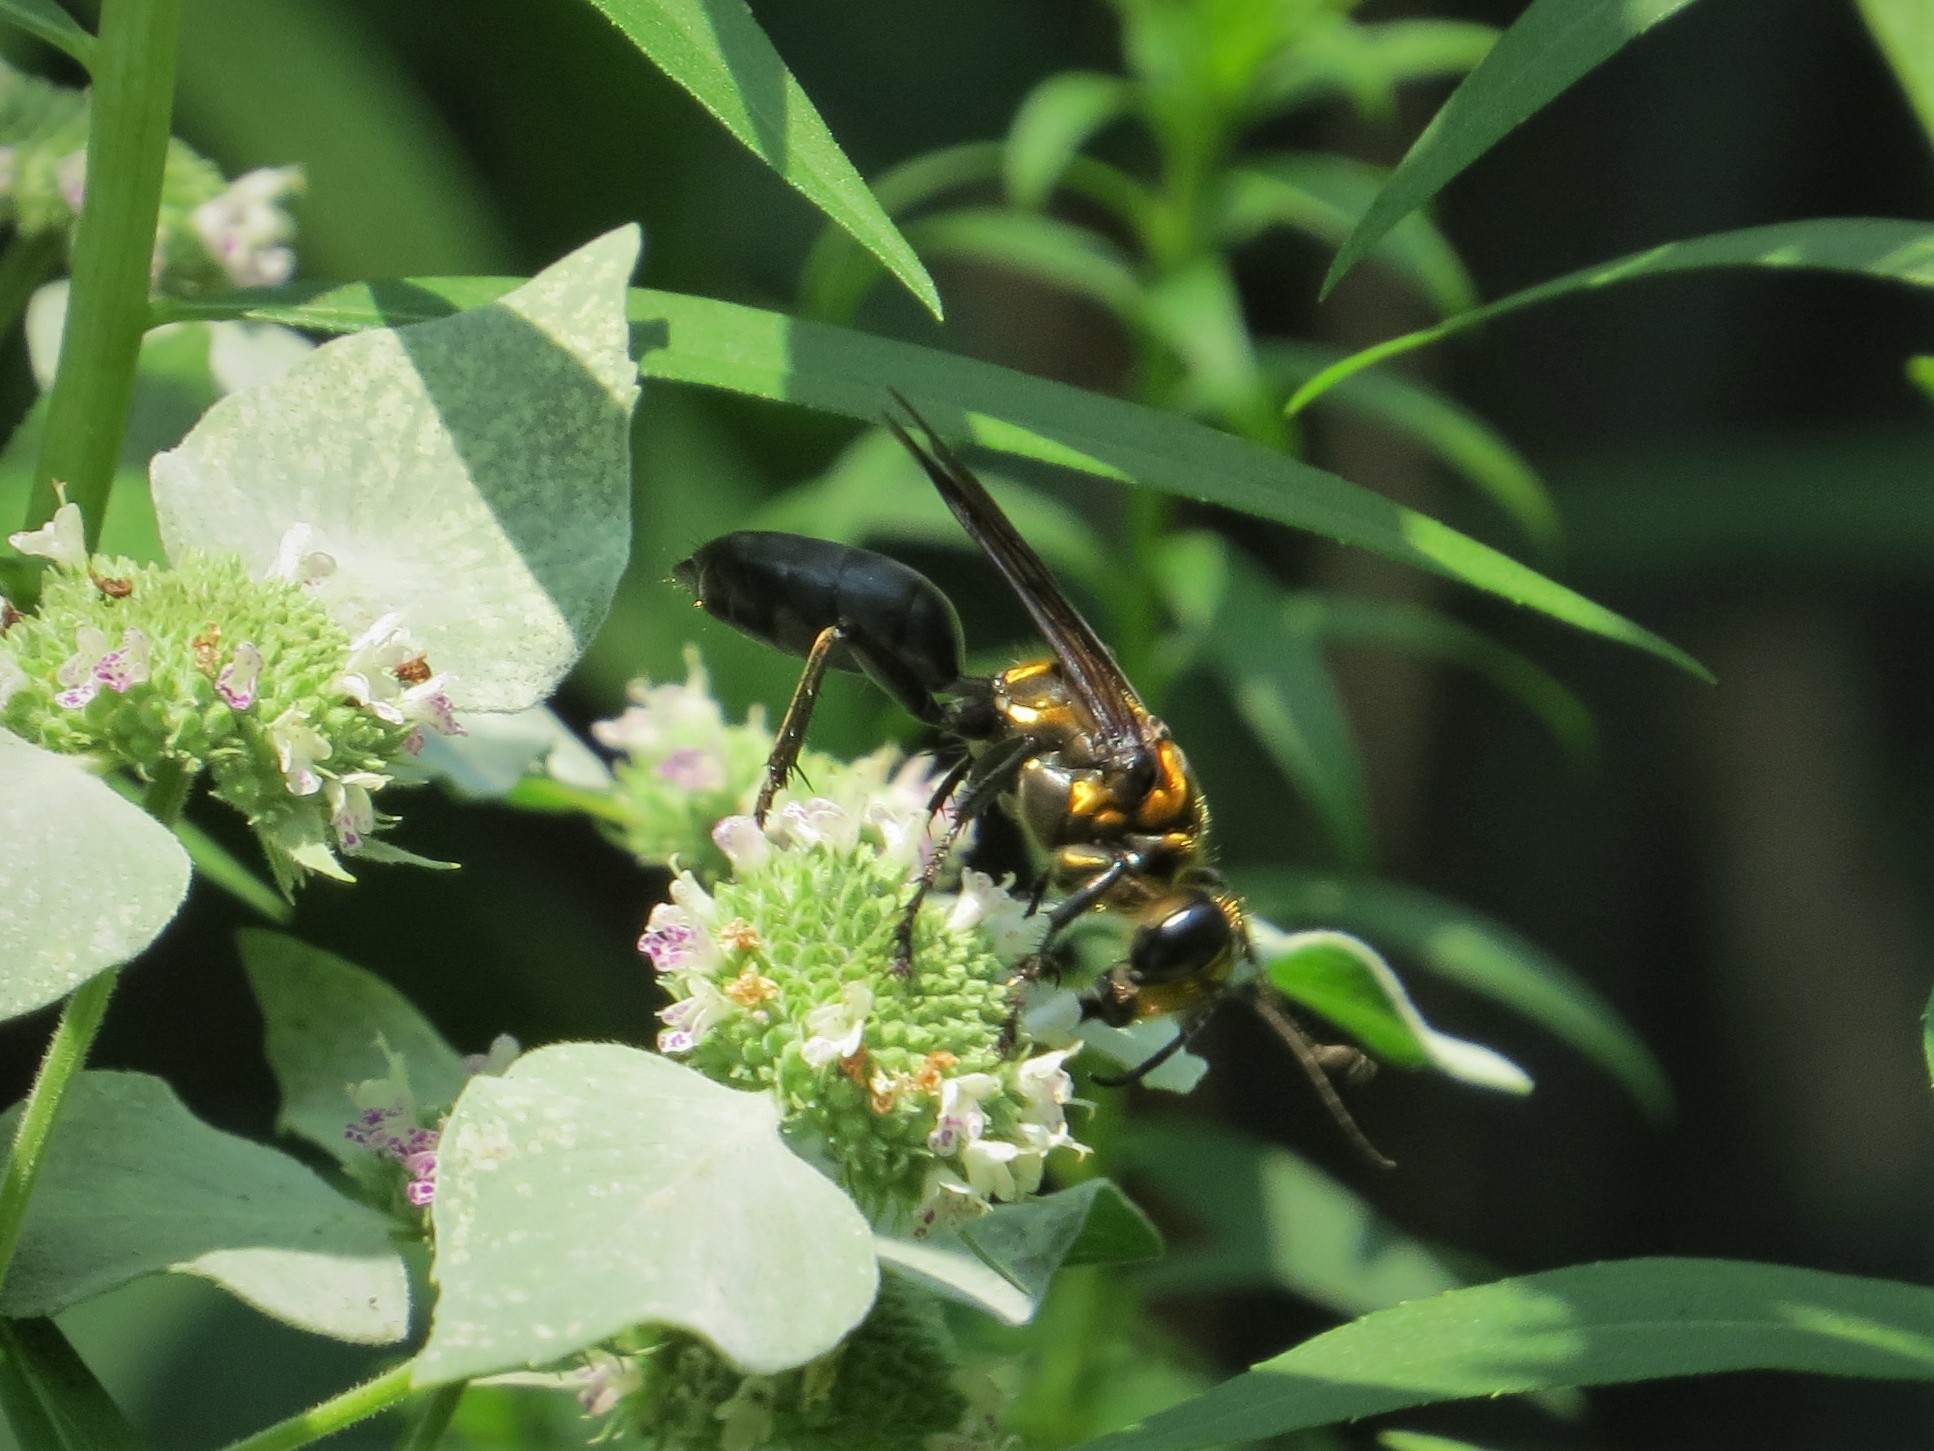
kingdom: Animalia
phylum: Arthropoda
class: Insecta
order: Hymenoptera
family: Sphecidae
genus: Sphex
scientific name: Sphex habenus
